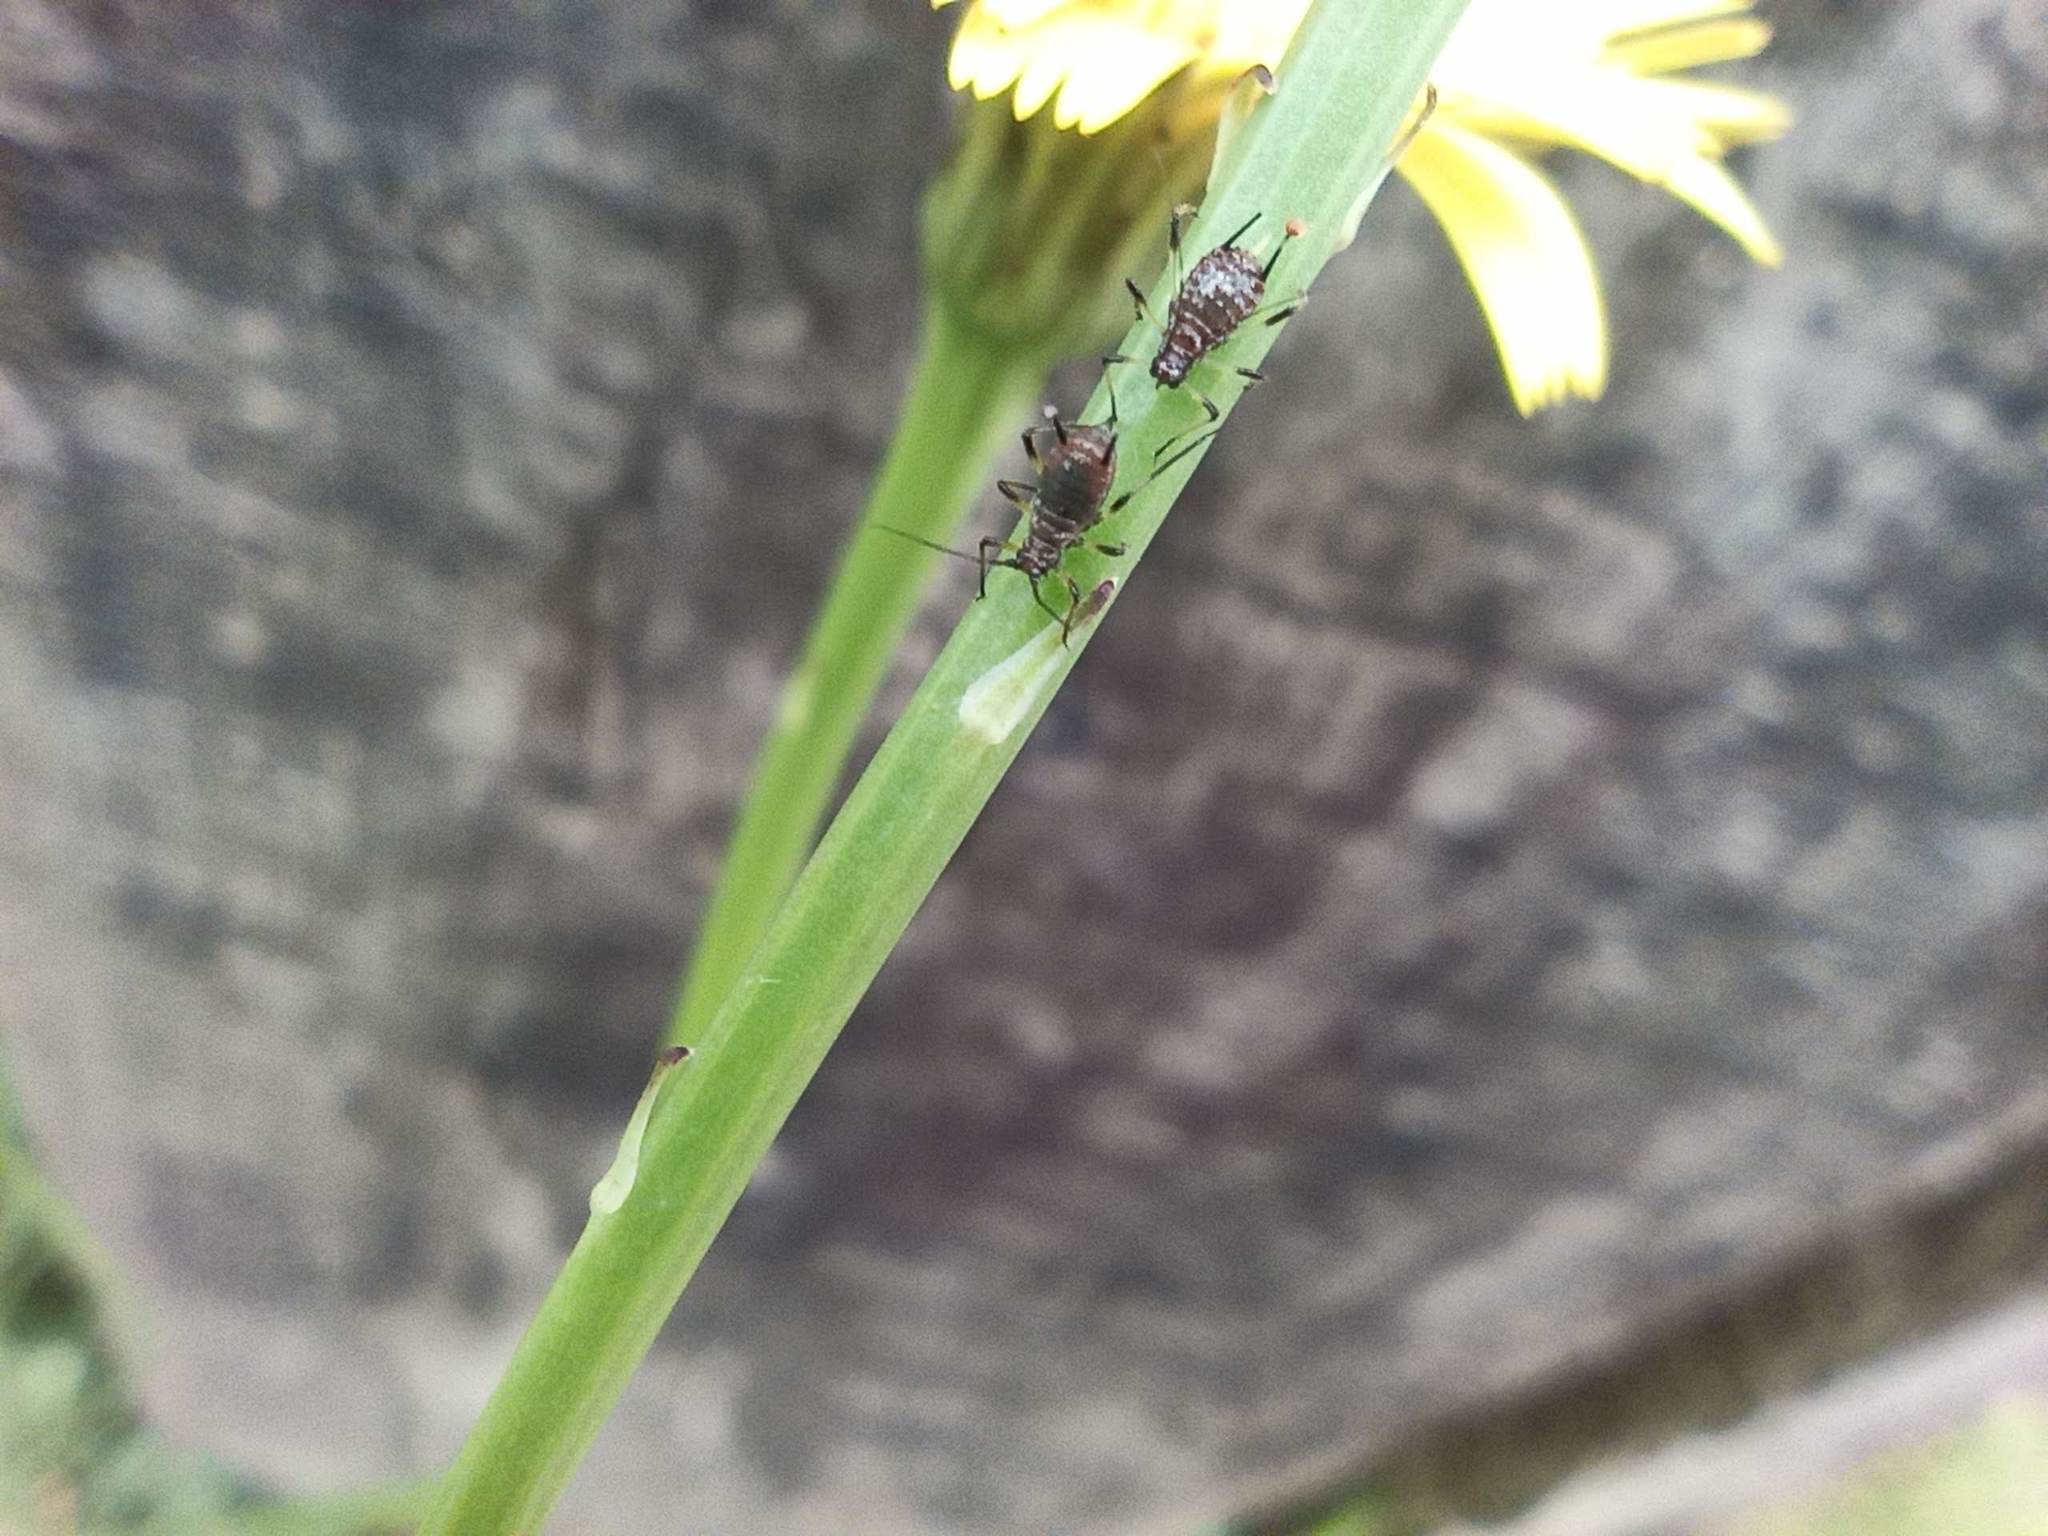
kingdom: Animalia
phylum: Arthropoda
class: Insecta
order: Hemiptera
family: Aphididae
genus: Uroleucon
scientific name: Uroleucon
